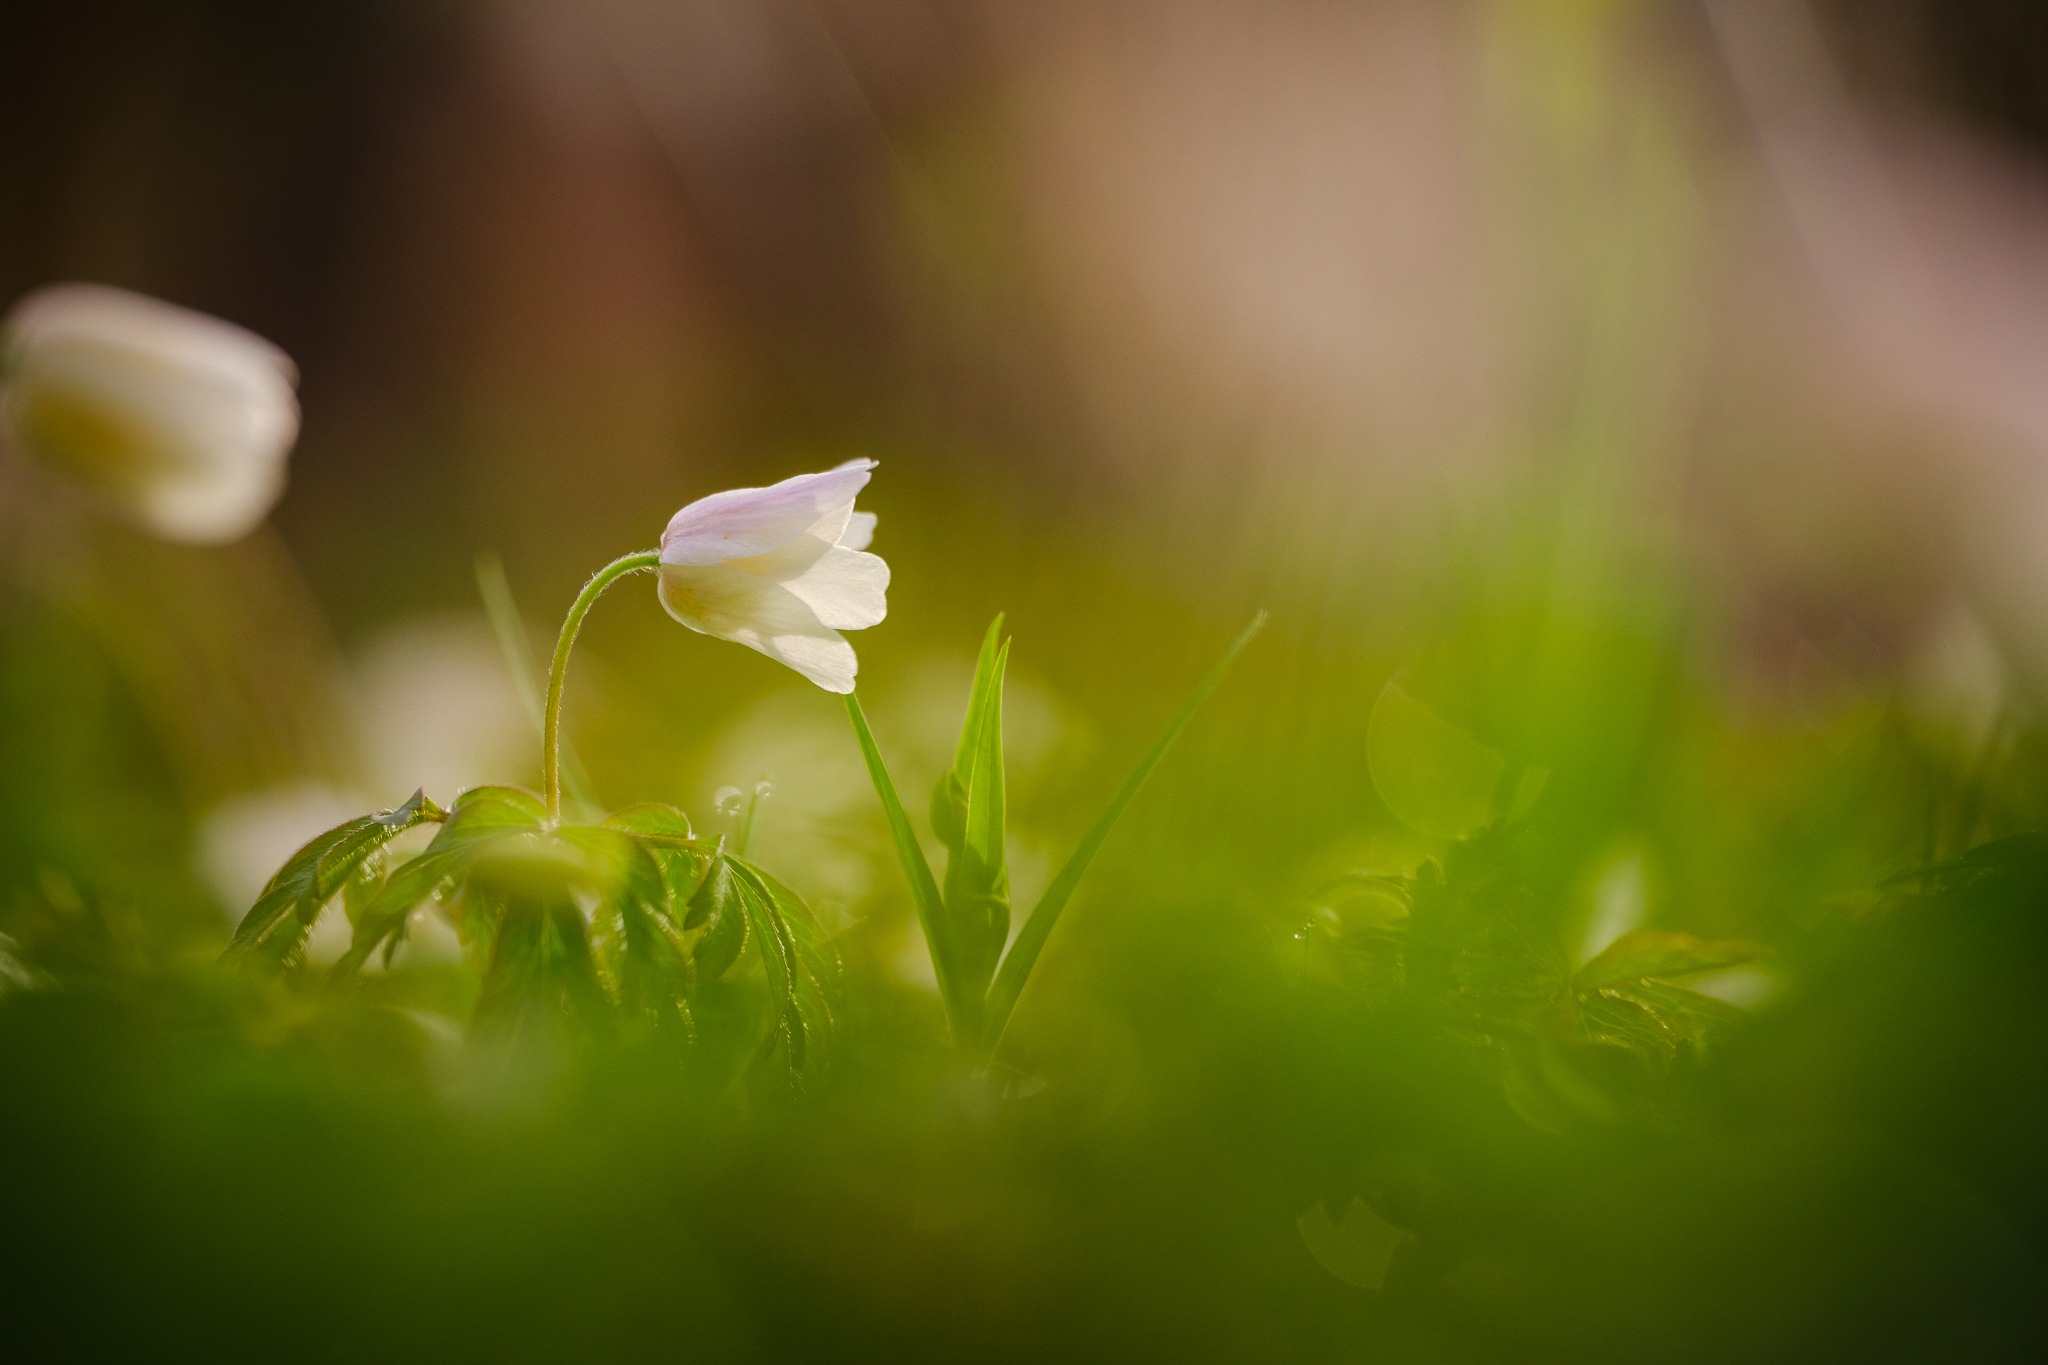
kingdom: Plantae
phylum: Tracheophyta
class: Magnoliopsida
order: Ranunculales
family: Ranunculaceae
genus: Anemone
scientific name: Anemone nemorosa
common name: Wood anemone
